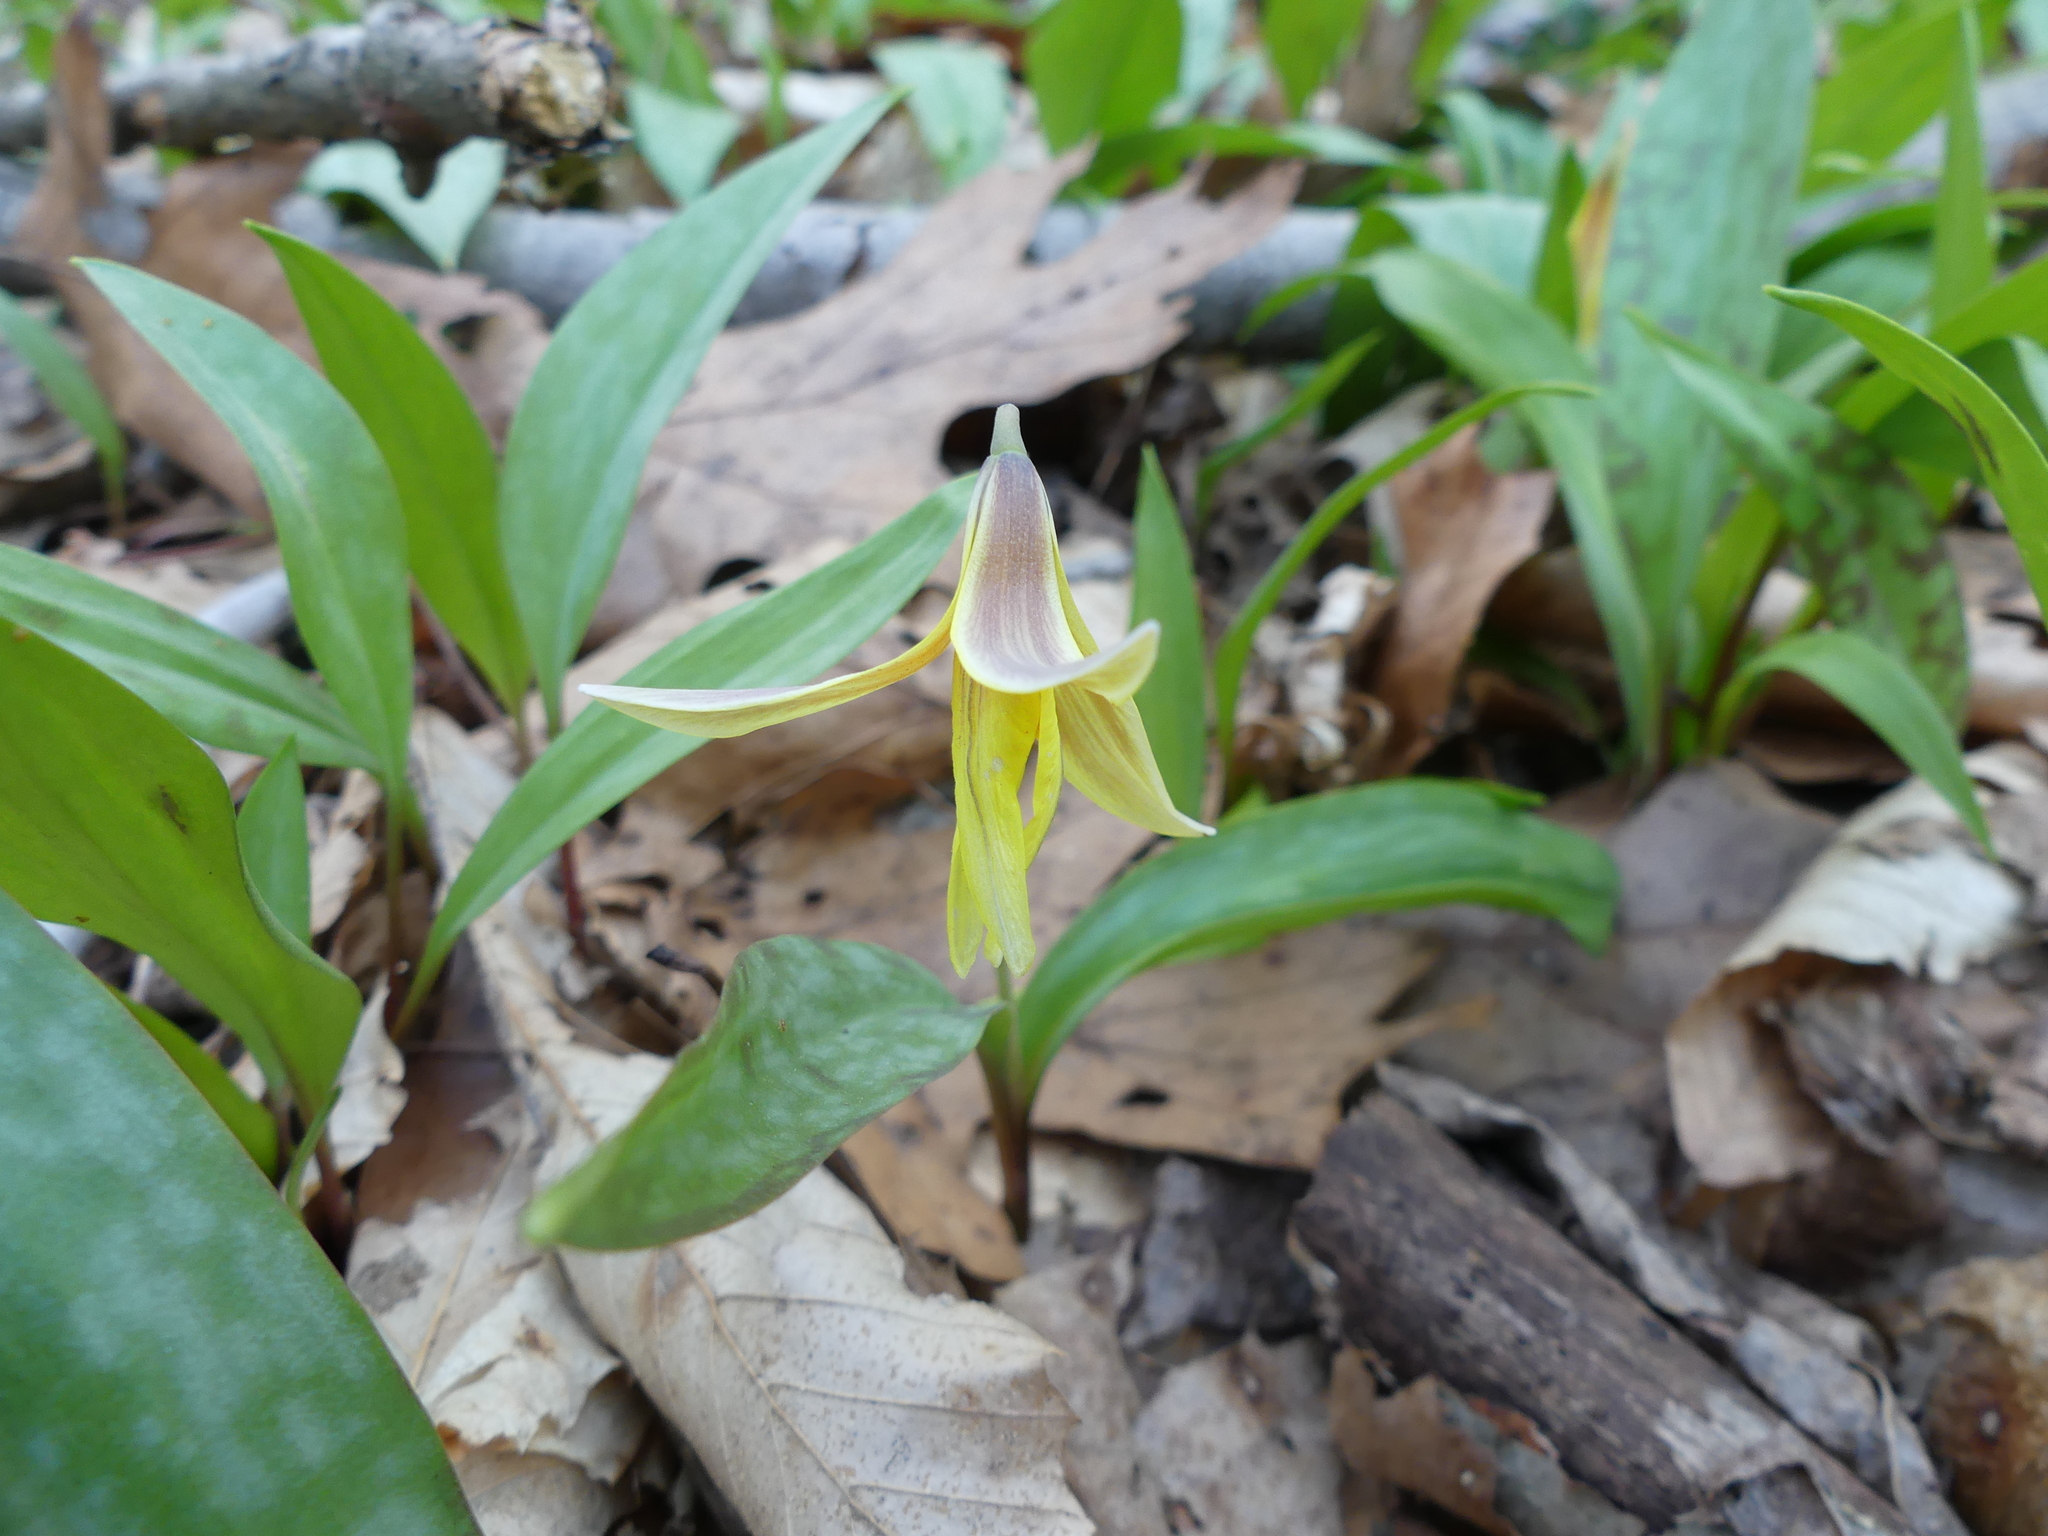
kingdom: Plantae
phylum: Tracheophyta
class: Liliopsida
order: Liliales
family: Liliaceae
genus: Erythronium
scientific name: Erythronium americanum
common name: Yellow adder's-tongue
